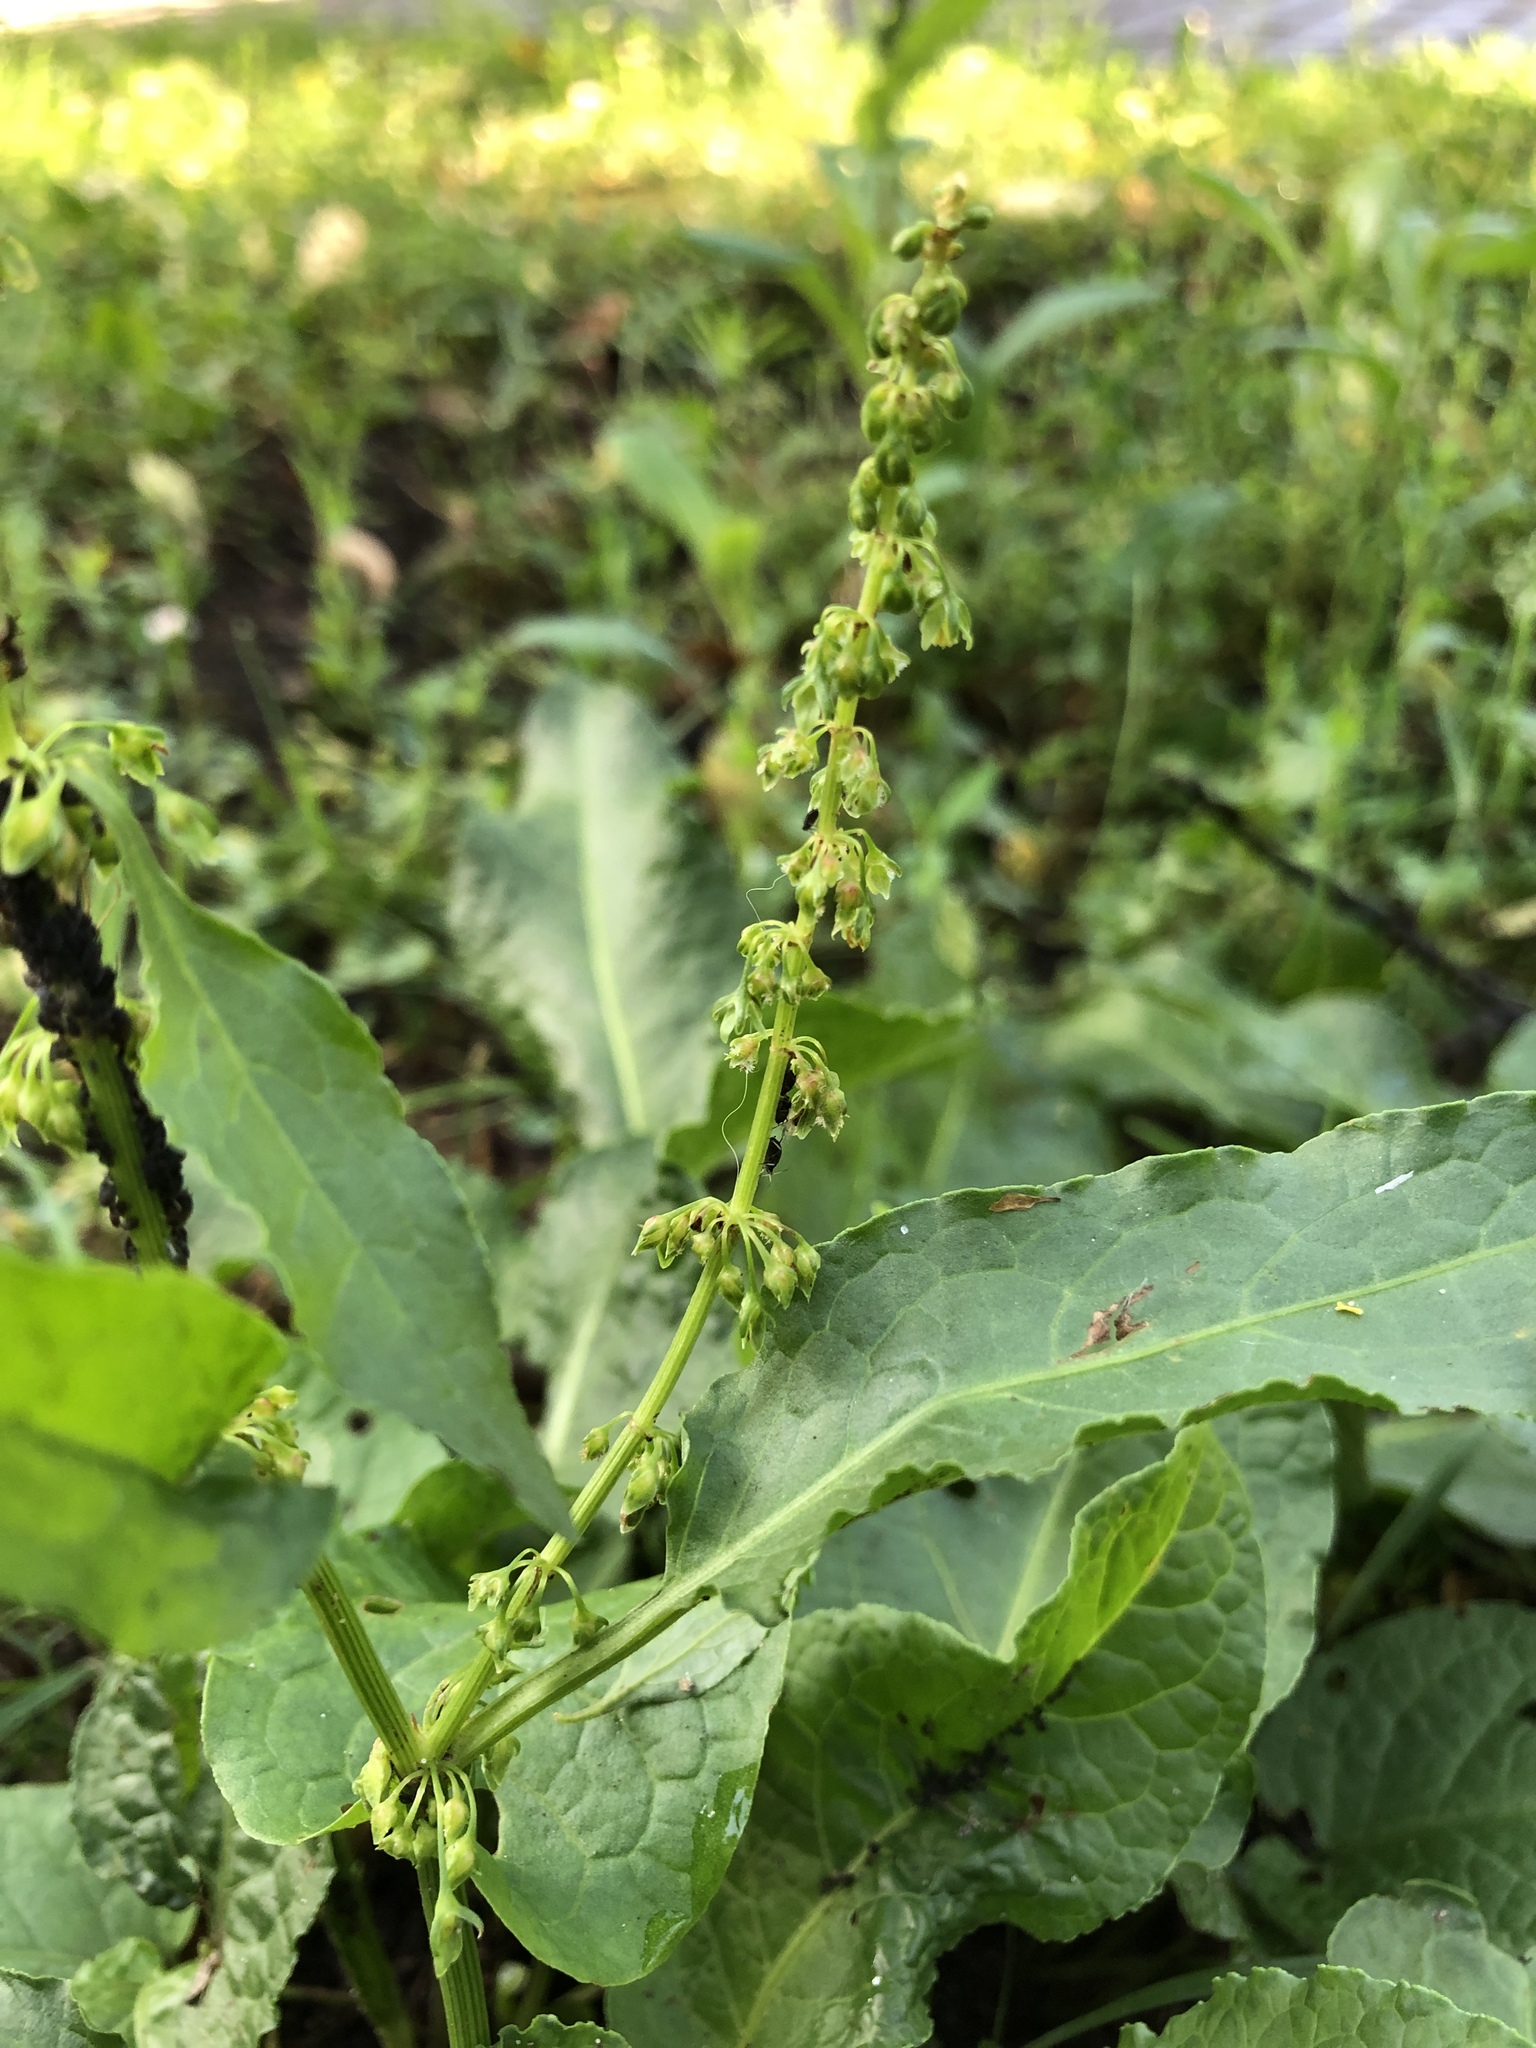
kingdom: Plantae
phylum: Tracheophyta
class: Magnoliopsida
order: Caryophyllales
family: Polygonaceae
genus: Rumex
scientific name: Rumex obtusifolius
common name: Bitter dock
